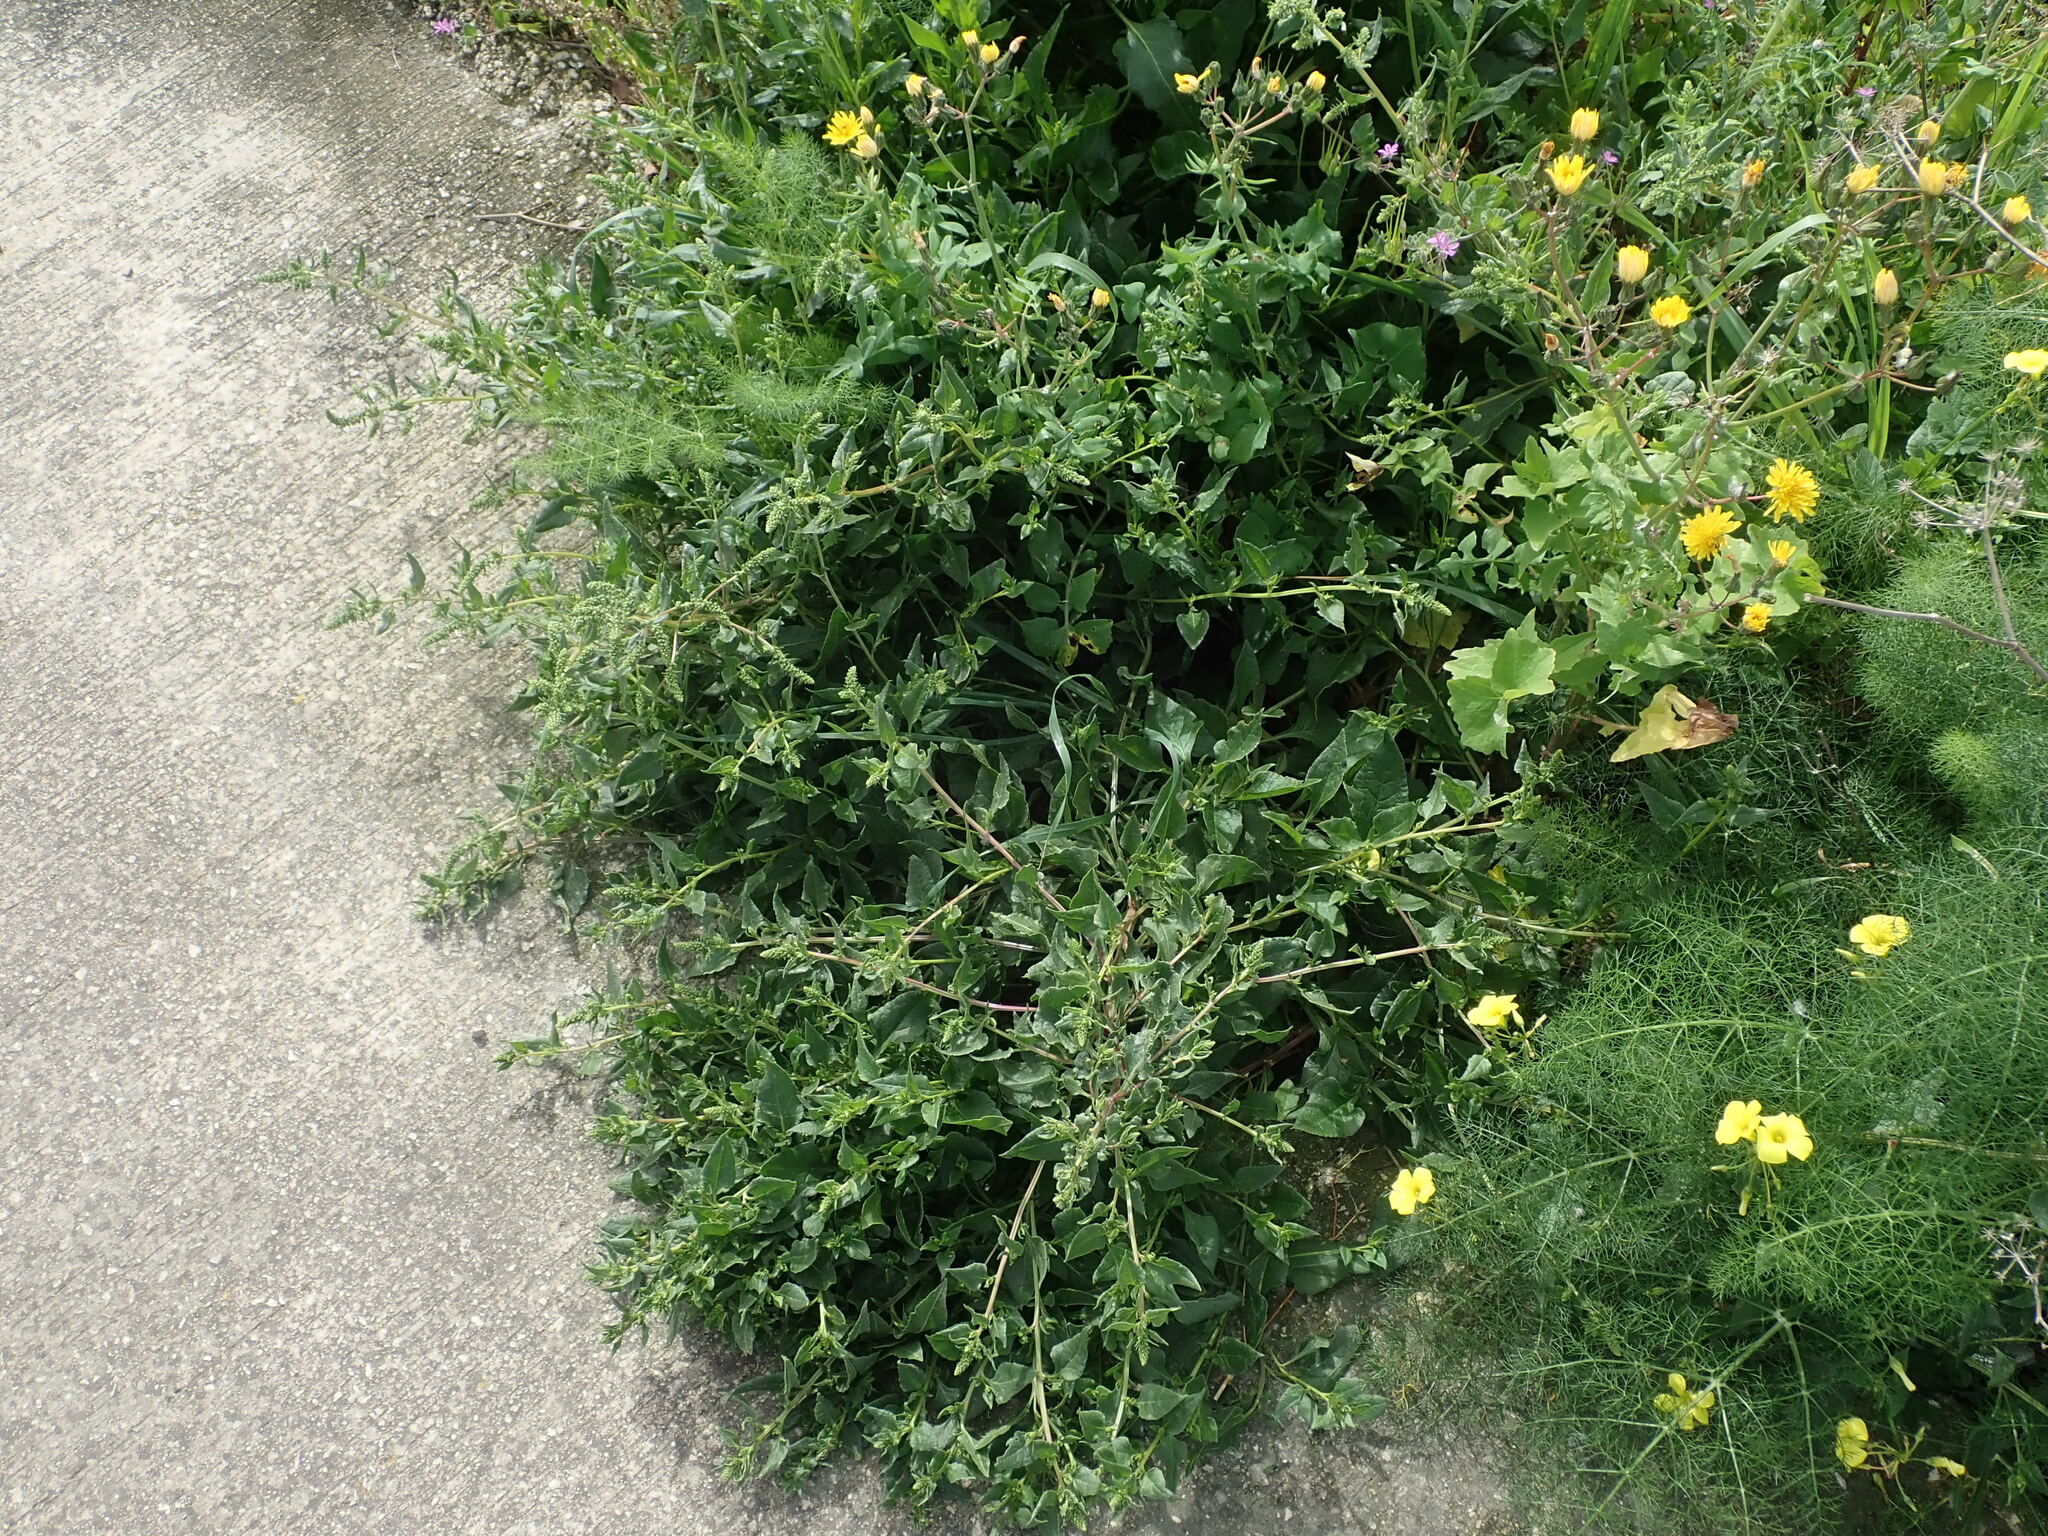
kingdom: Plantae
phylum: Tracheophyta
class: Magnoliopsida
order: Caryophyllales
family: Amaranthaceae
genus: Beta
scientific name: Beta vulgaris
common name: Beet
